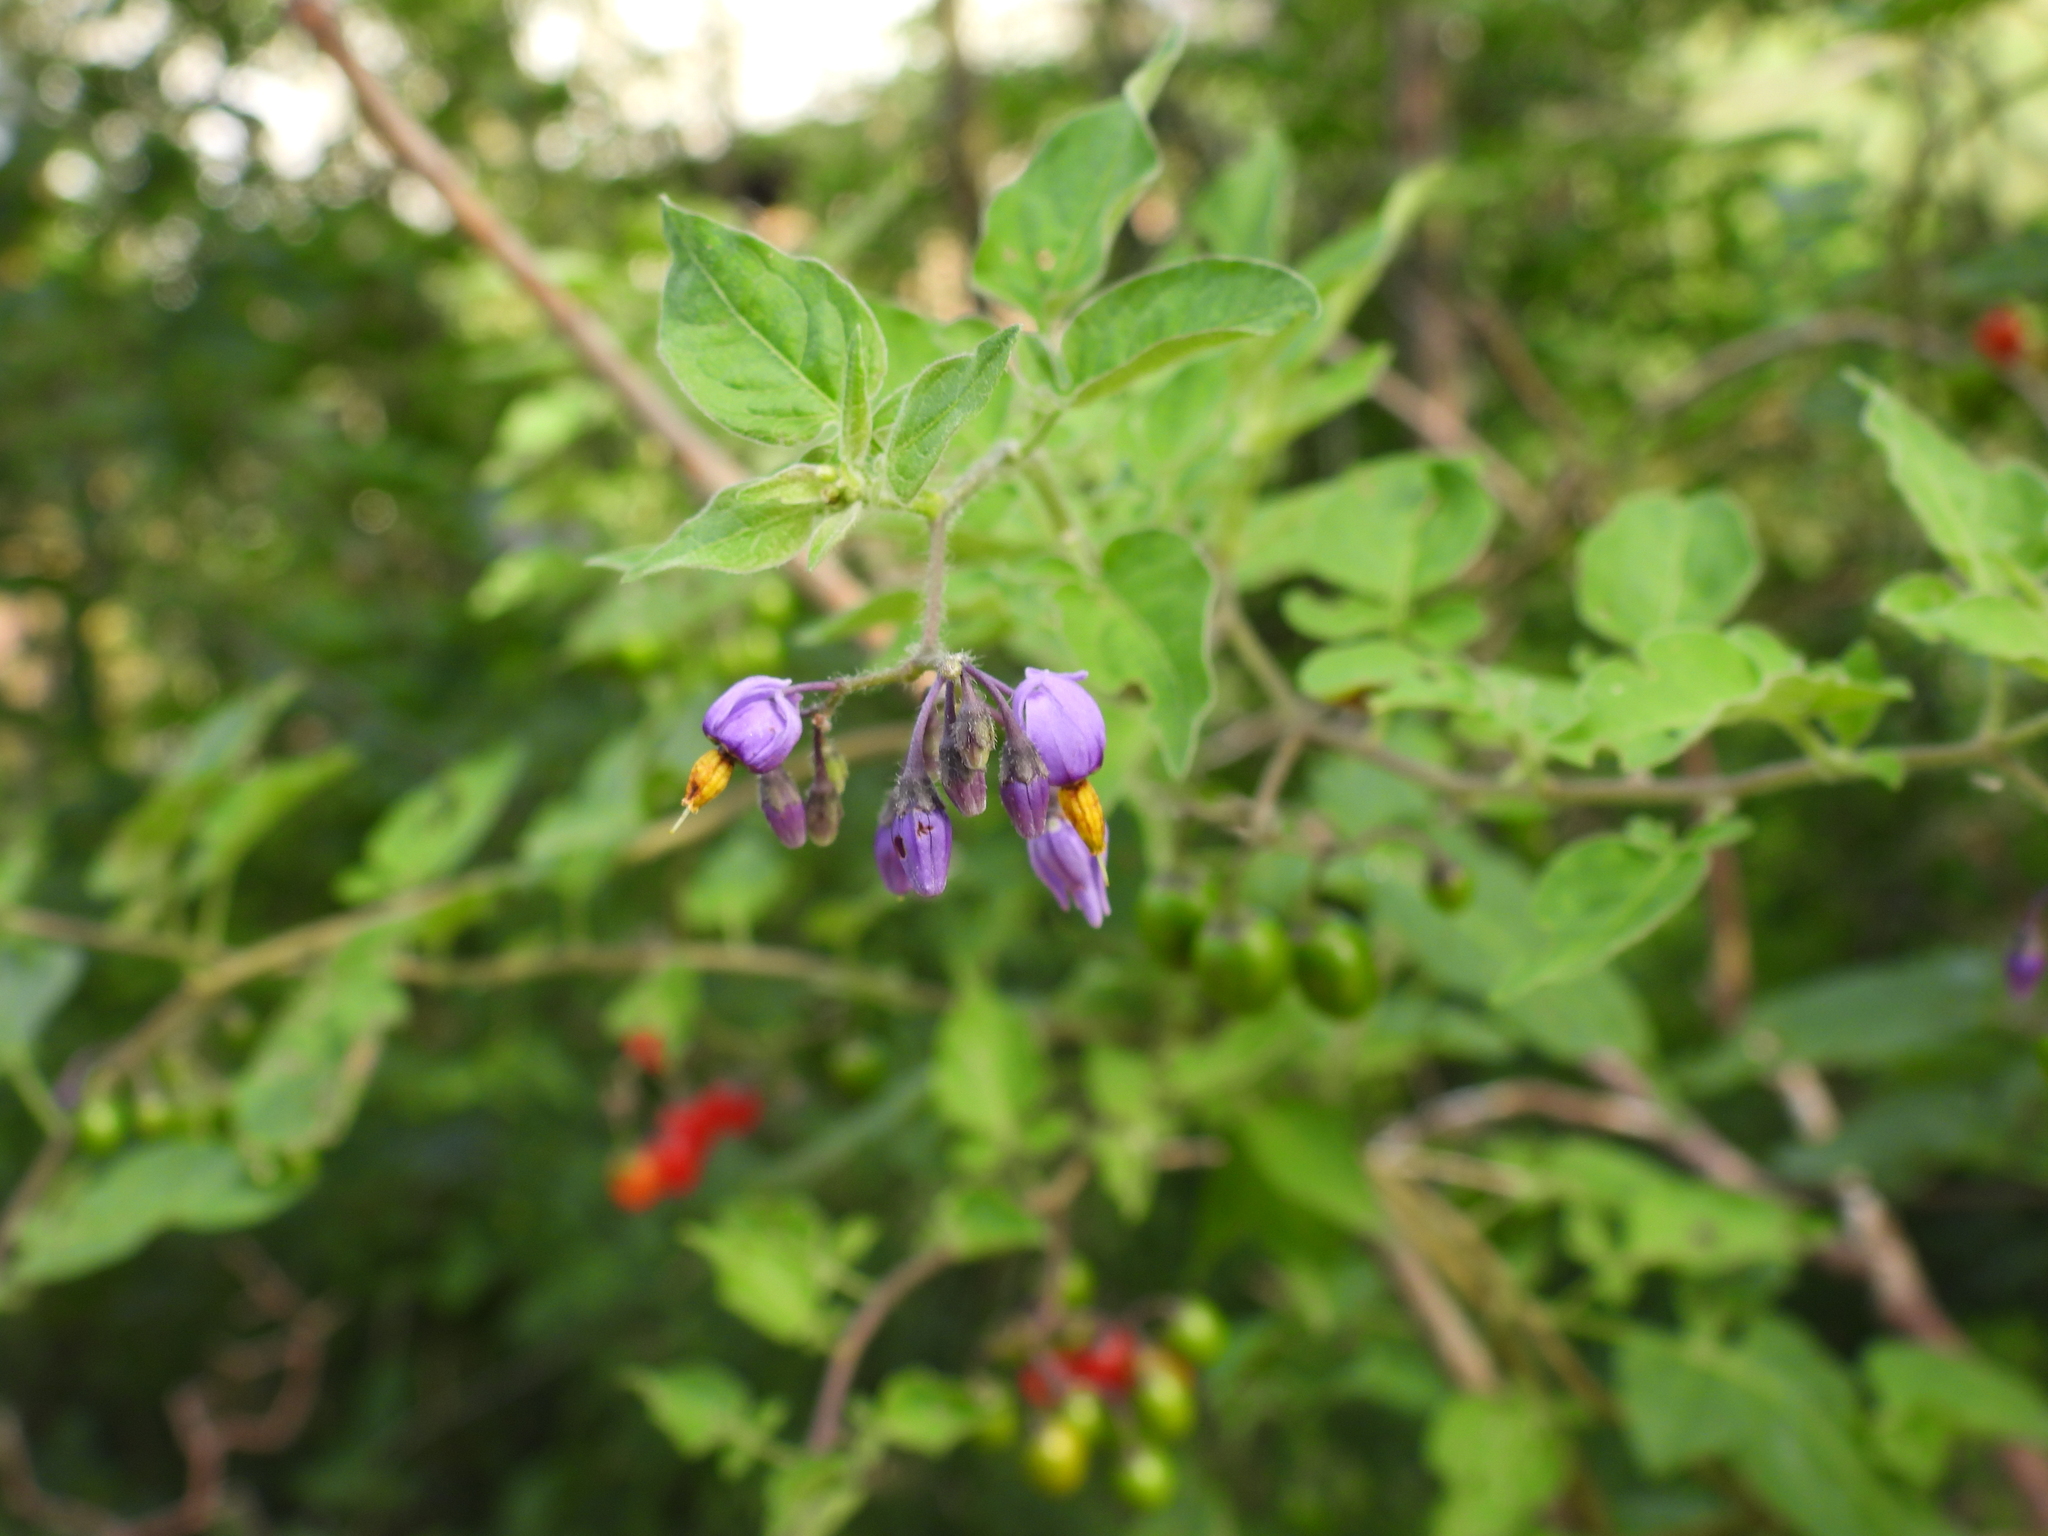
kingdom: Plantae
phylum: Tracheophyta
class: Magnoliopsida
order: Solanales
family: Solanaceae
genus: Solanum
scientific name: Solanum dulcamara
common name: Climbing nightshade
